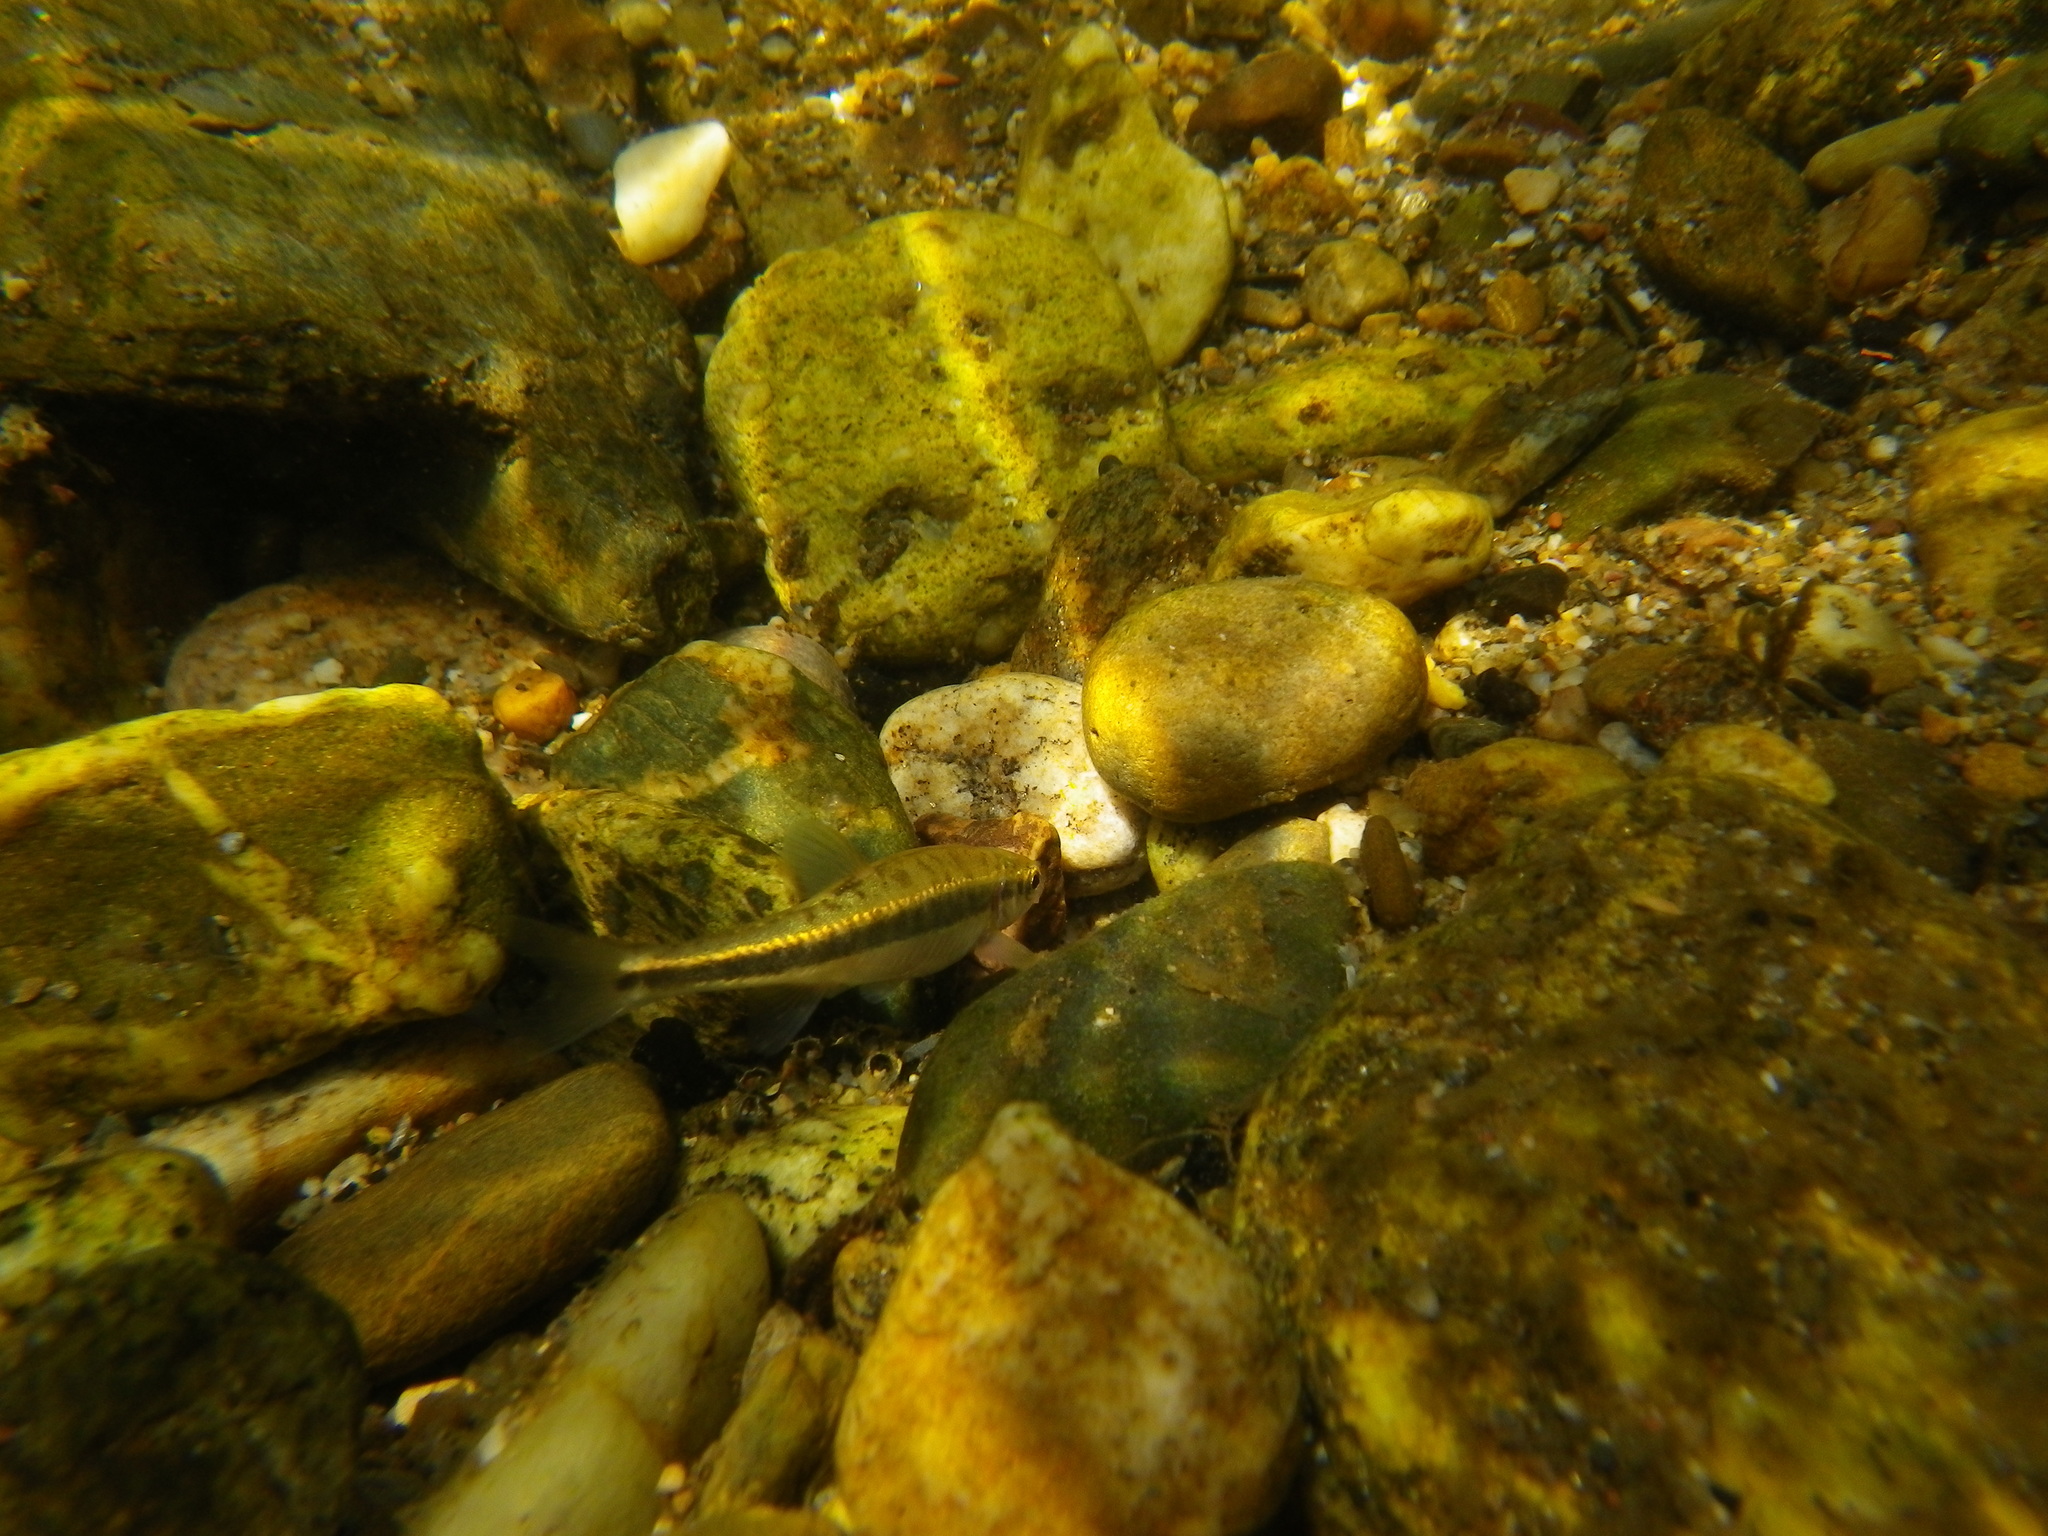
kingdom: Animalia
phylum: Chordata
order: Cypriniformes
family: Cyprinidae
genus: Phoxinus
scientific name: Phoxinus septimaniae
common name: Languedoc minnow
